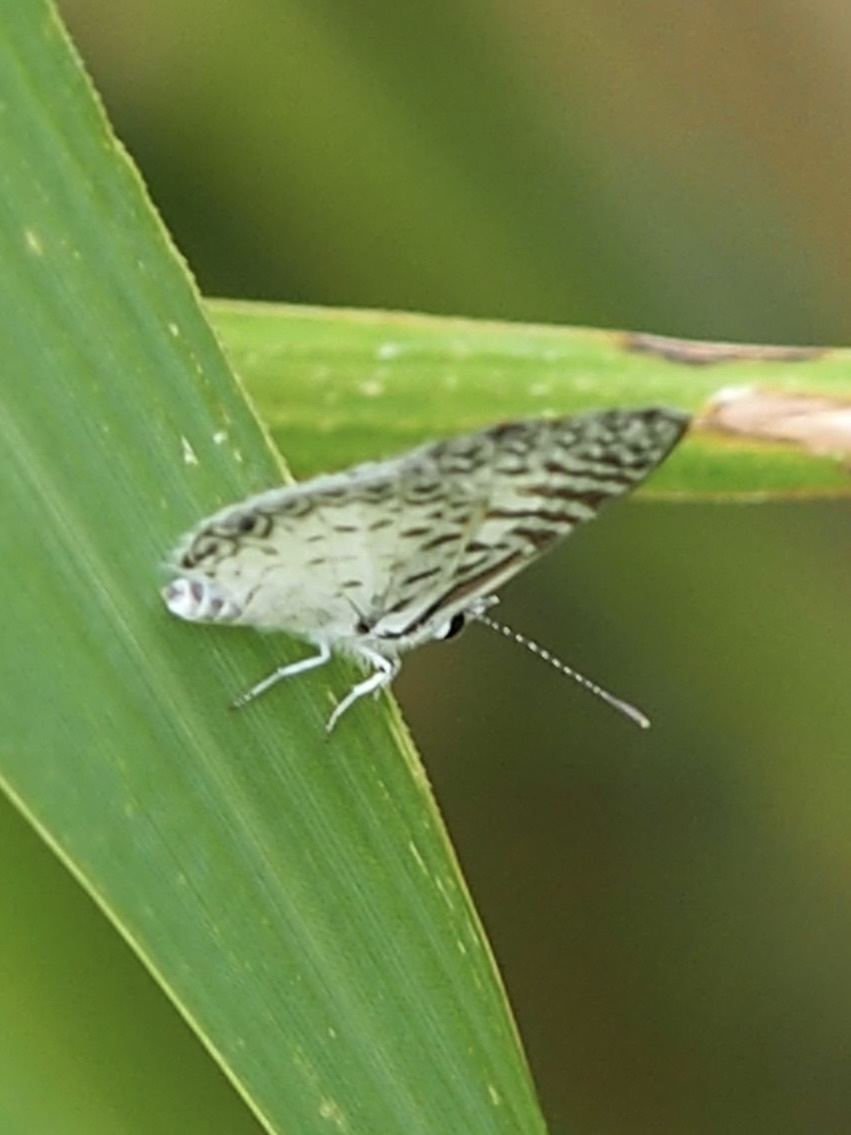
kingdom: Animalia
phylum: Arthropoda
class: Insecta
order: Lepidoptera
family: Lycaenidae
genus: Leptotes
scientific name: Leptotes cassius
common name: Cassius blue
